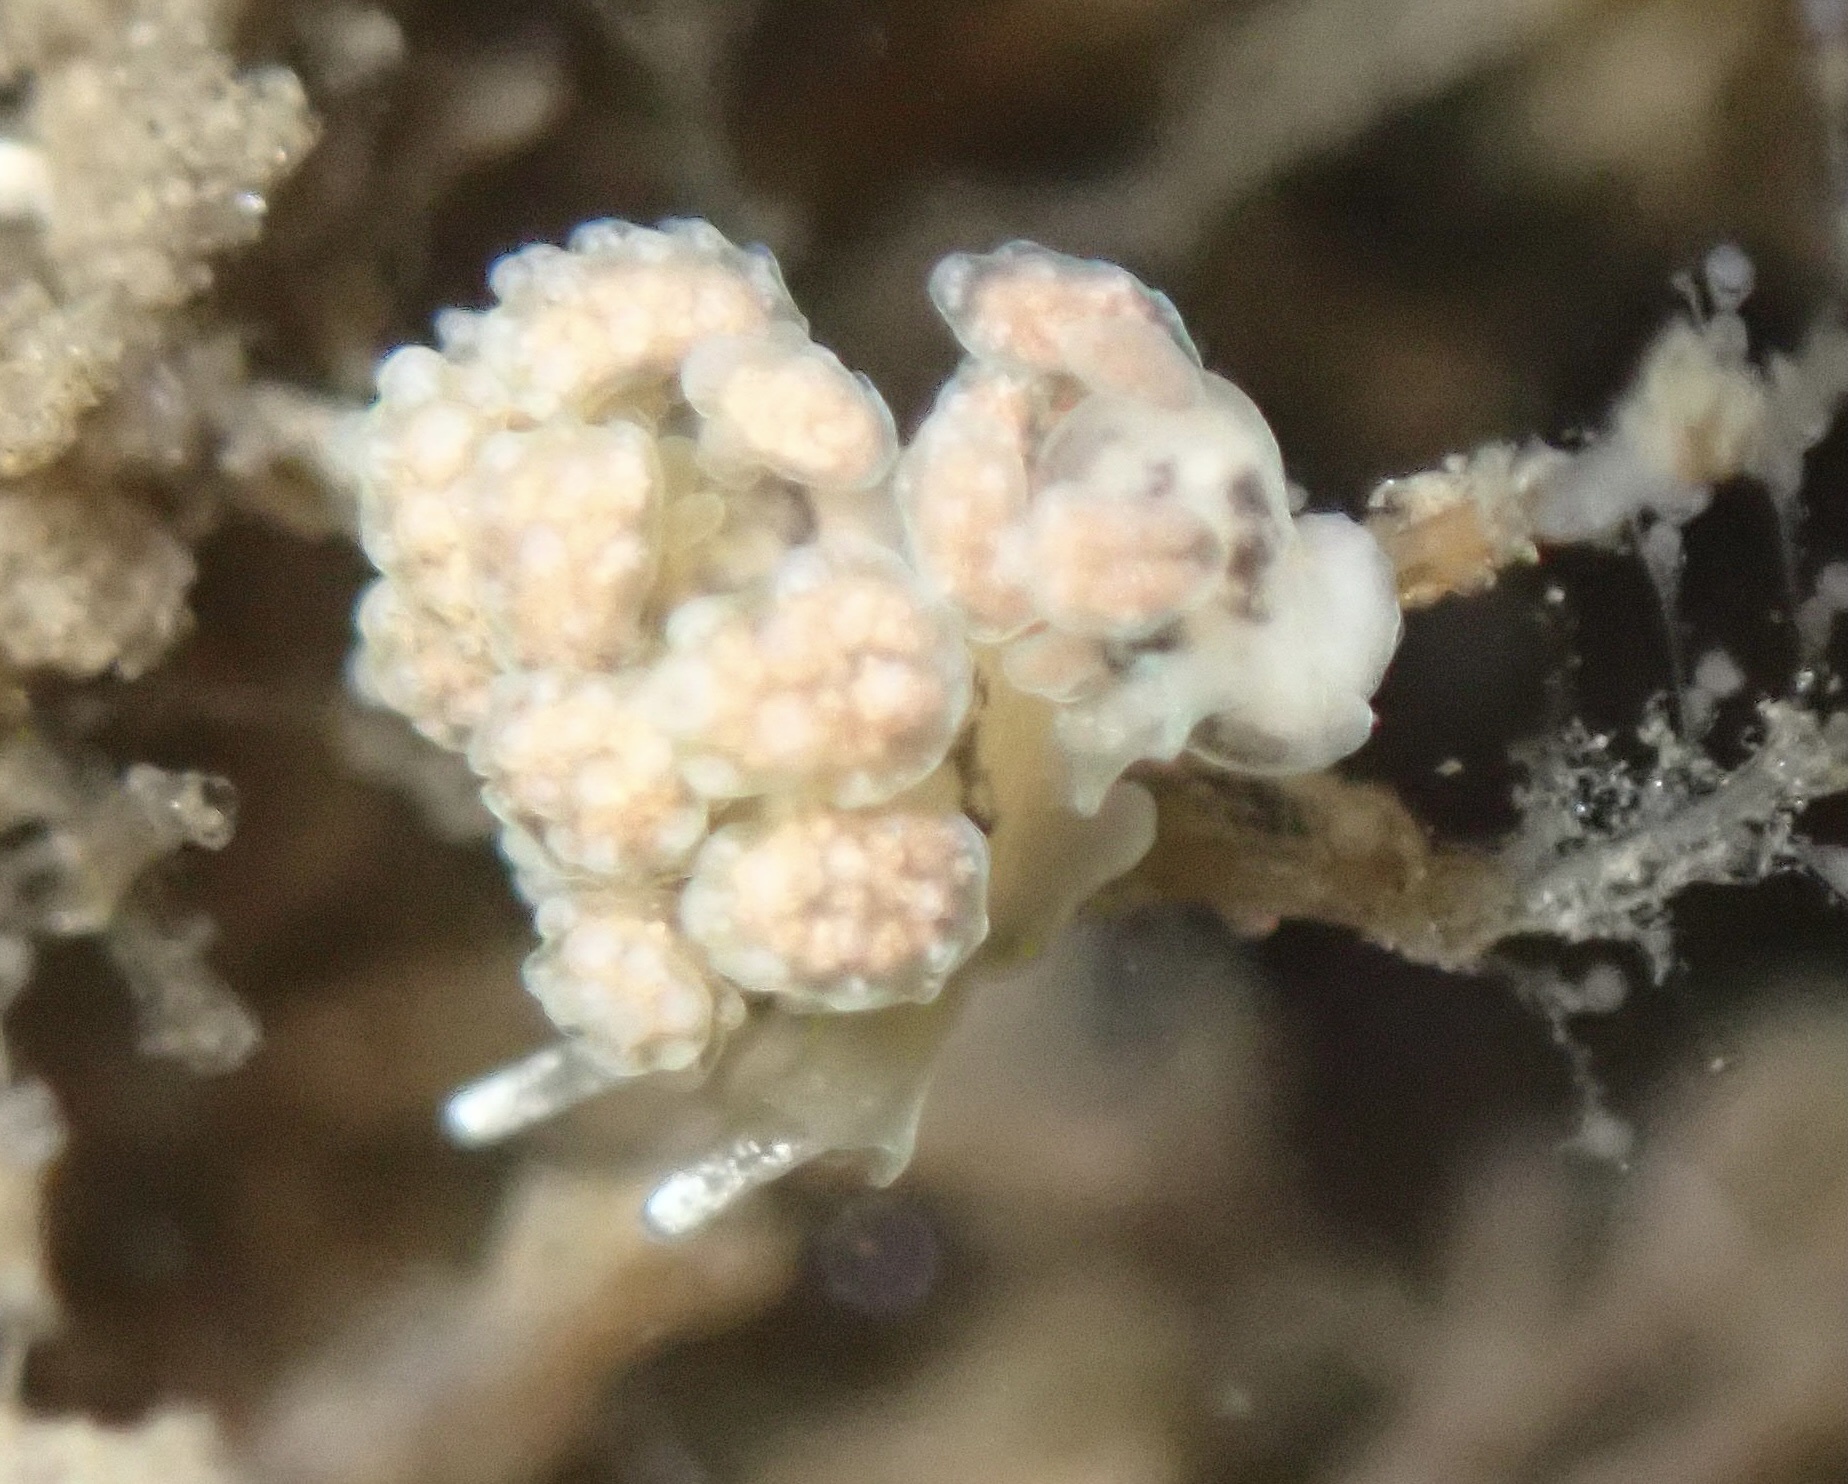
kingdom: Animalia
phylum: Mollusca
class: Gastropoda
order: Nudibranchia
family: Dotidae
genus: Doto
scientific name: Doto kya
